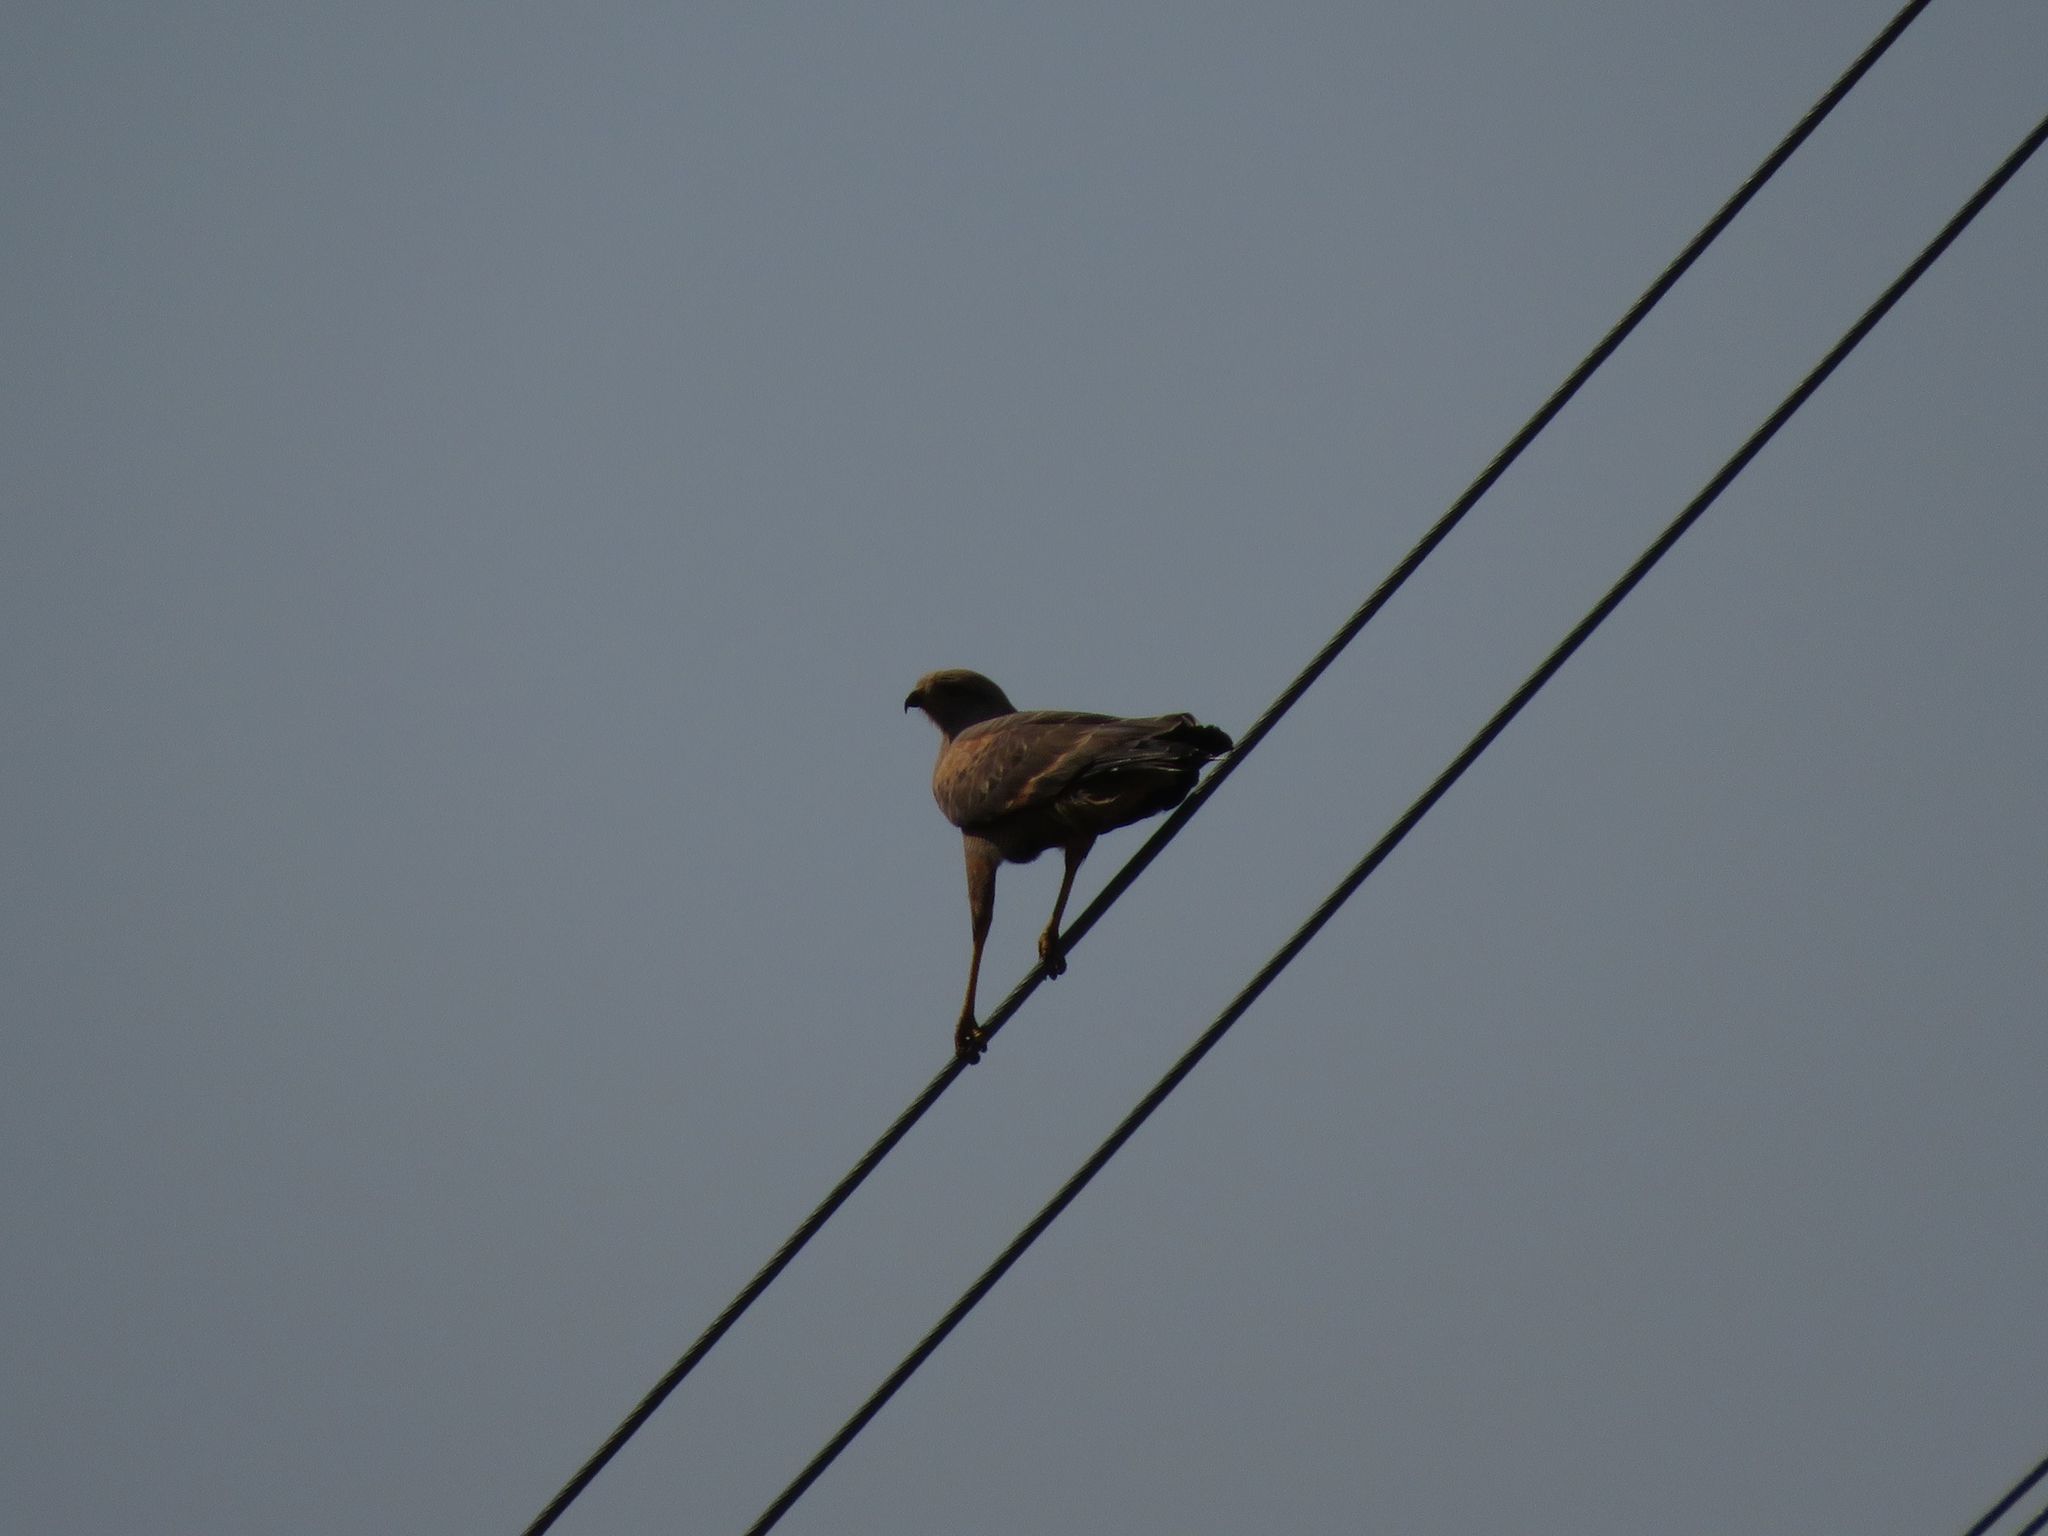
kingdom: Animalia
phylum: Chordata
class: Aves
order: Accipitriformes
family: Accipitridae
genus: Buteogallus
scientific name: Buteogallus meridionalis
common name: Savanna hawk
